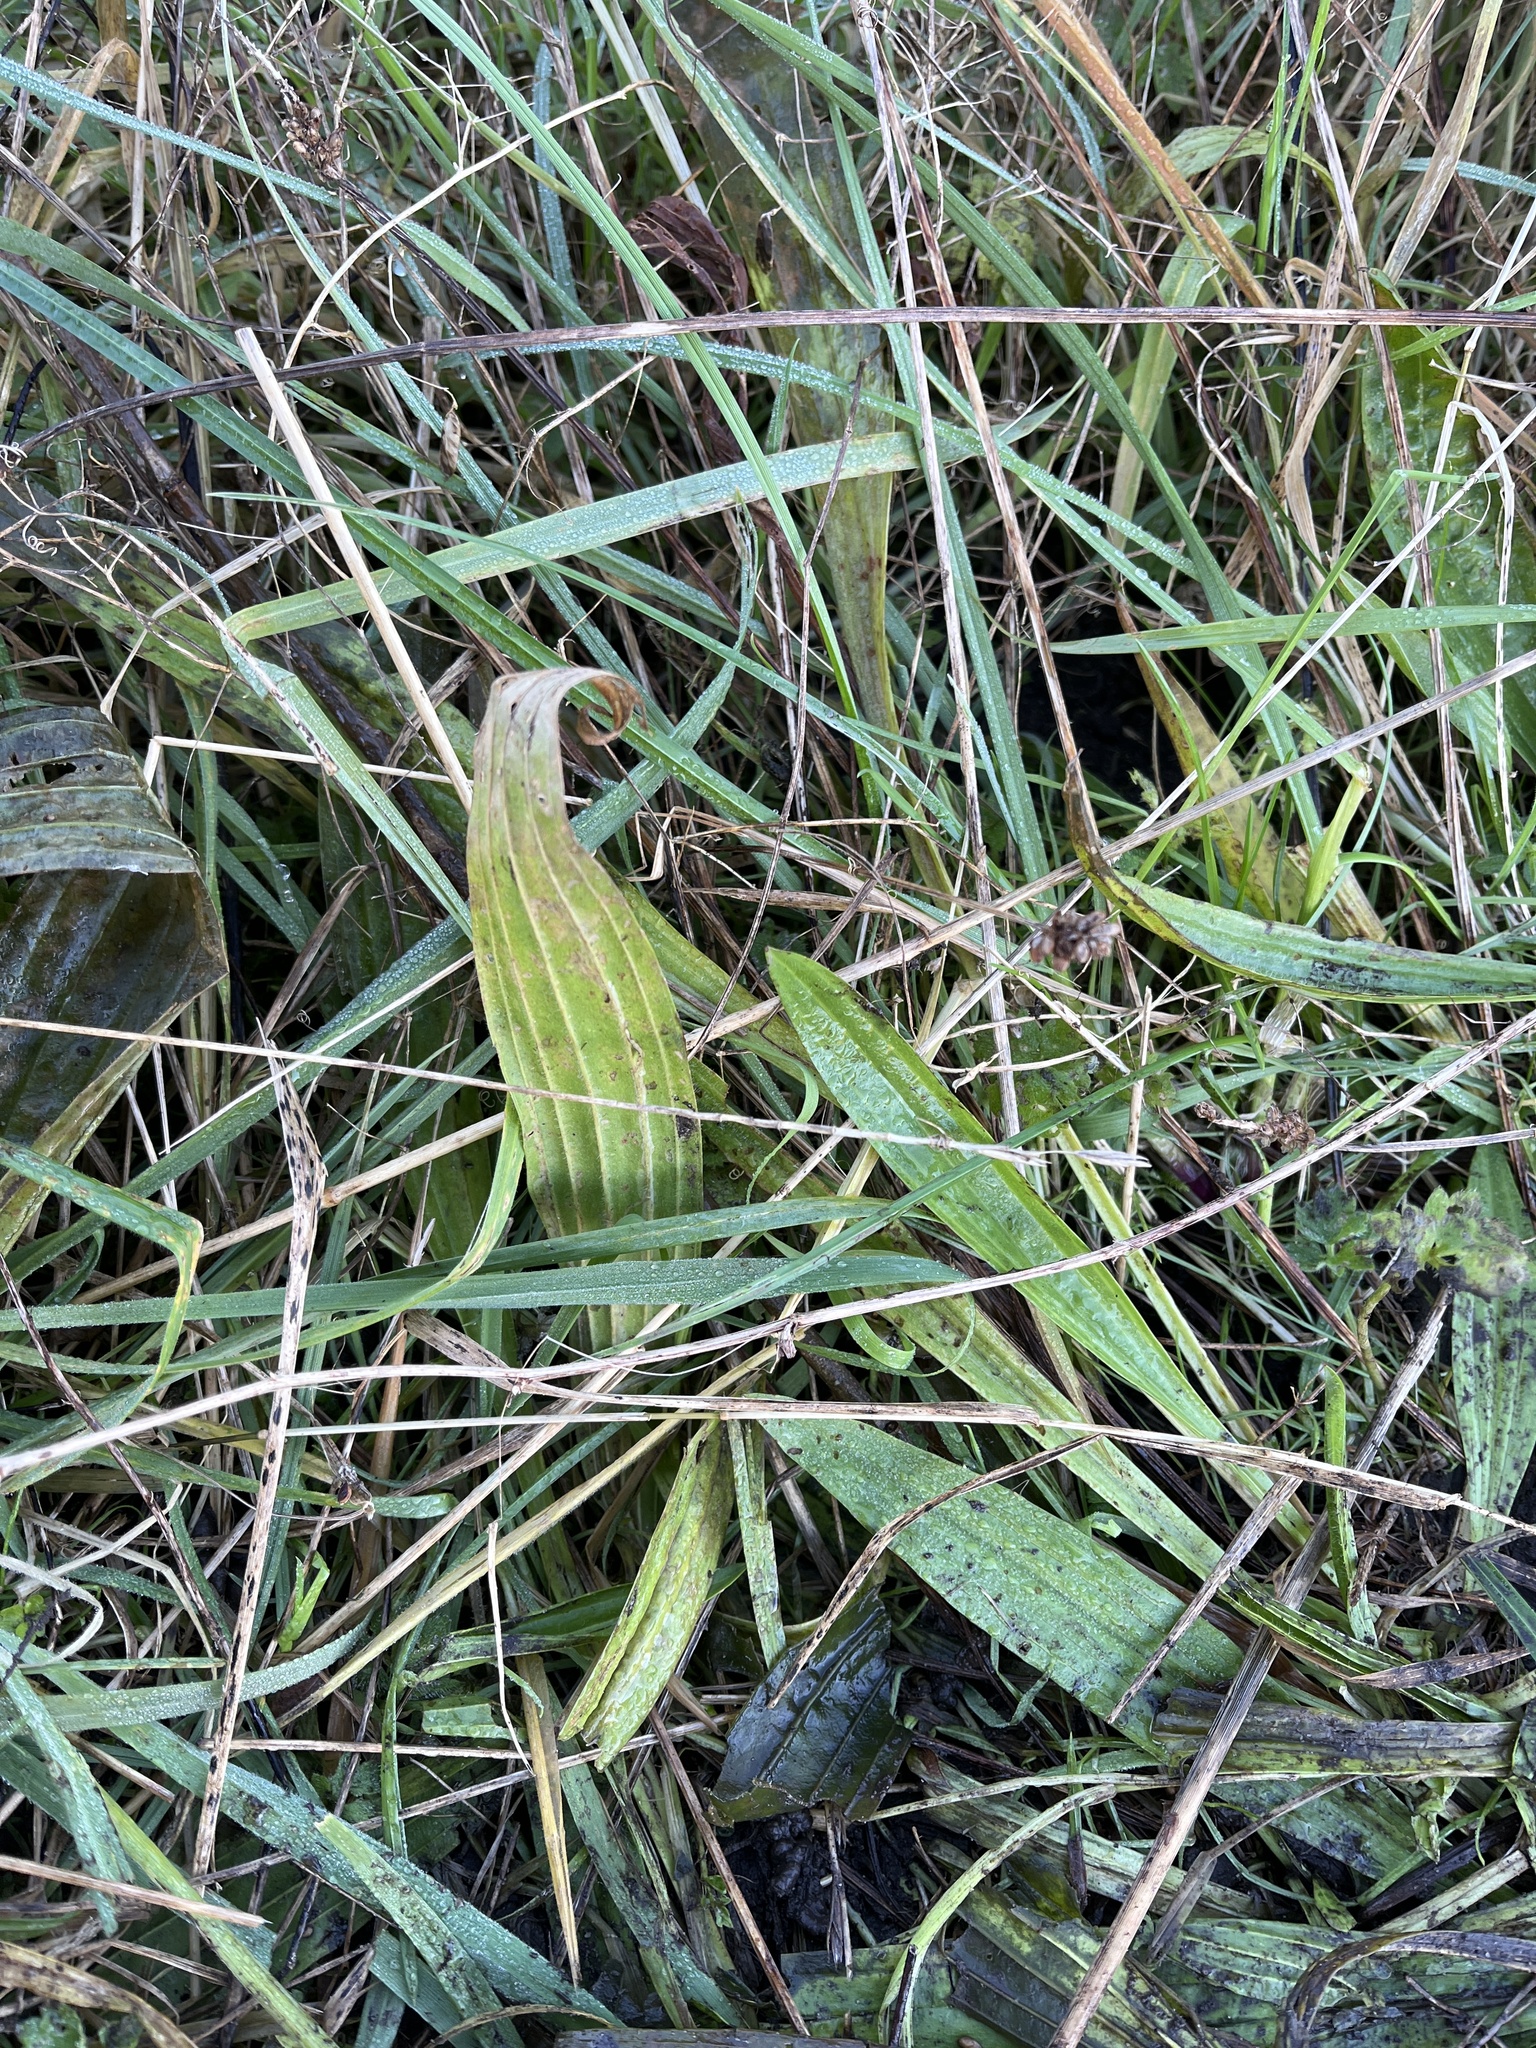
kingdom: Plantae
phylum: Tracheophyta
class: Magnoliopsida
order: Lamiales
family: Plantaginaceae
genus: Plantago
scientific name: Plantago lanceolata
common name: Ribwort plantain
